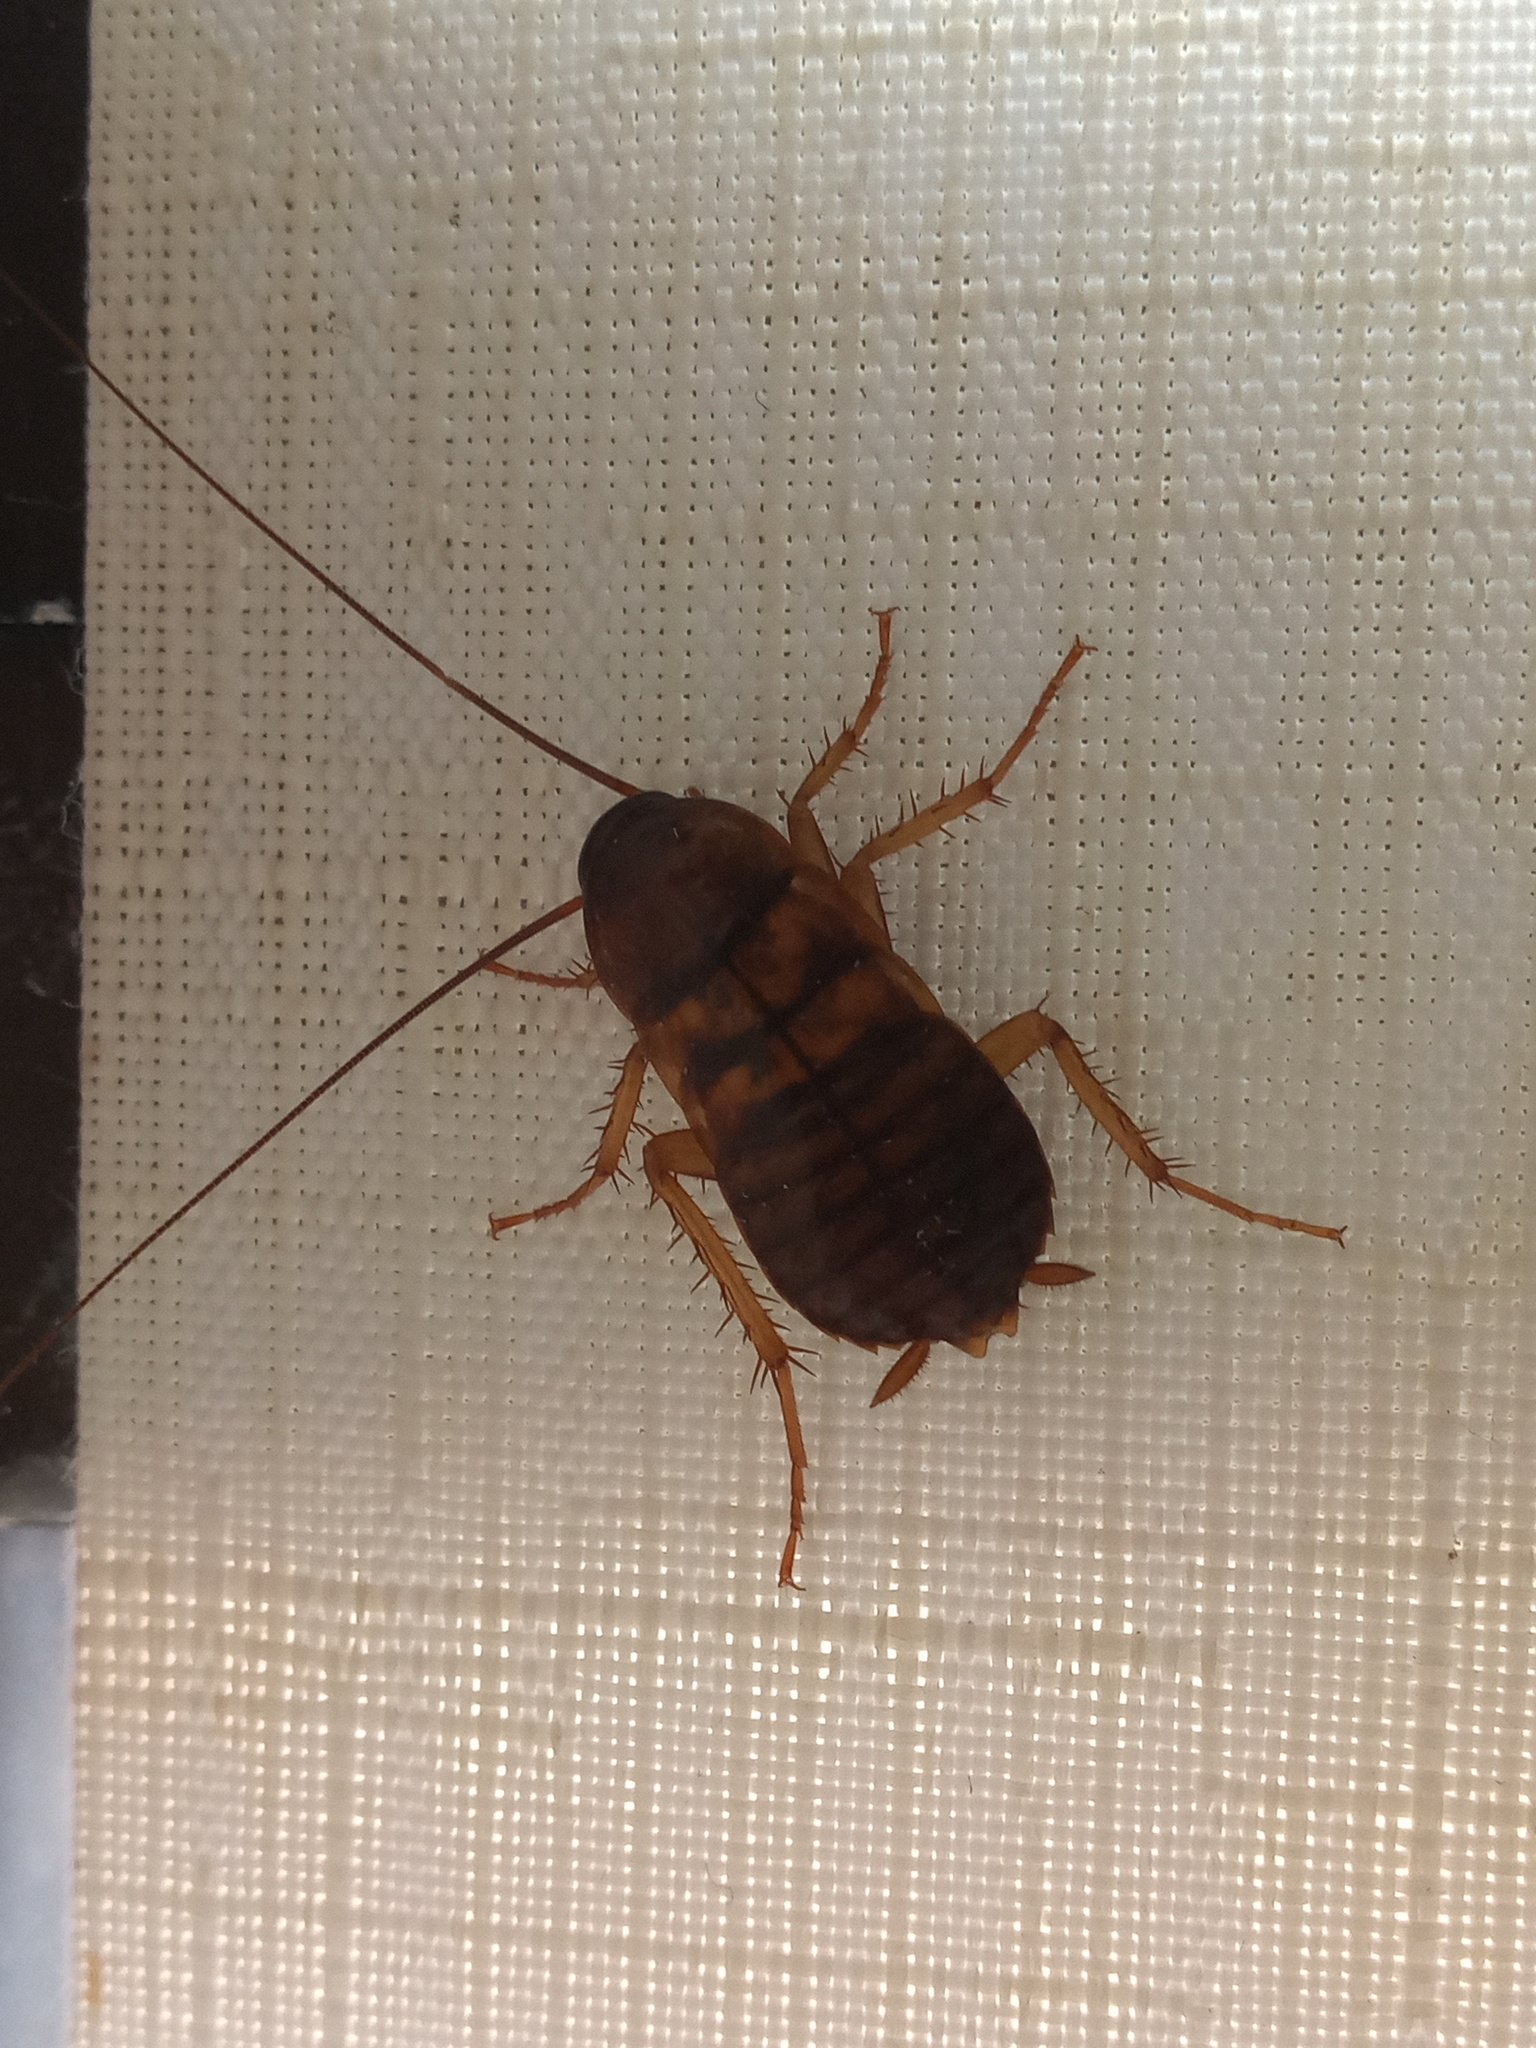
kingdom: Animalia
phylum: Arthropoda
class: Insecta
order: Blattodea
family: Blattidae
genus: Periplaneta
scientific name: Periplaneta americana
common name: American cockroach
